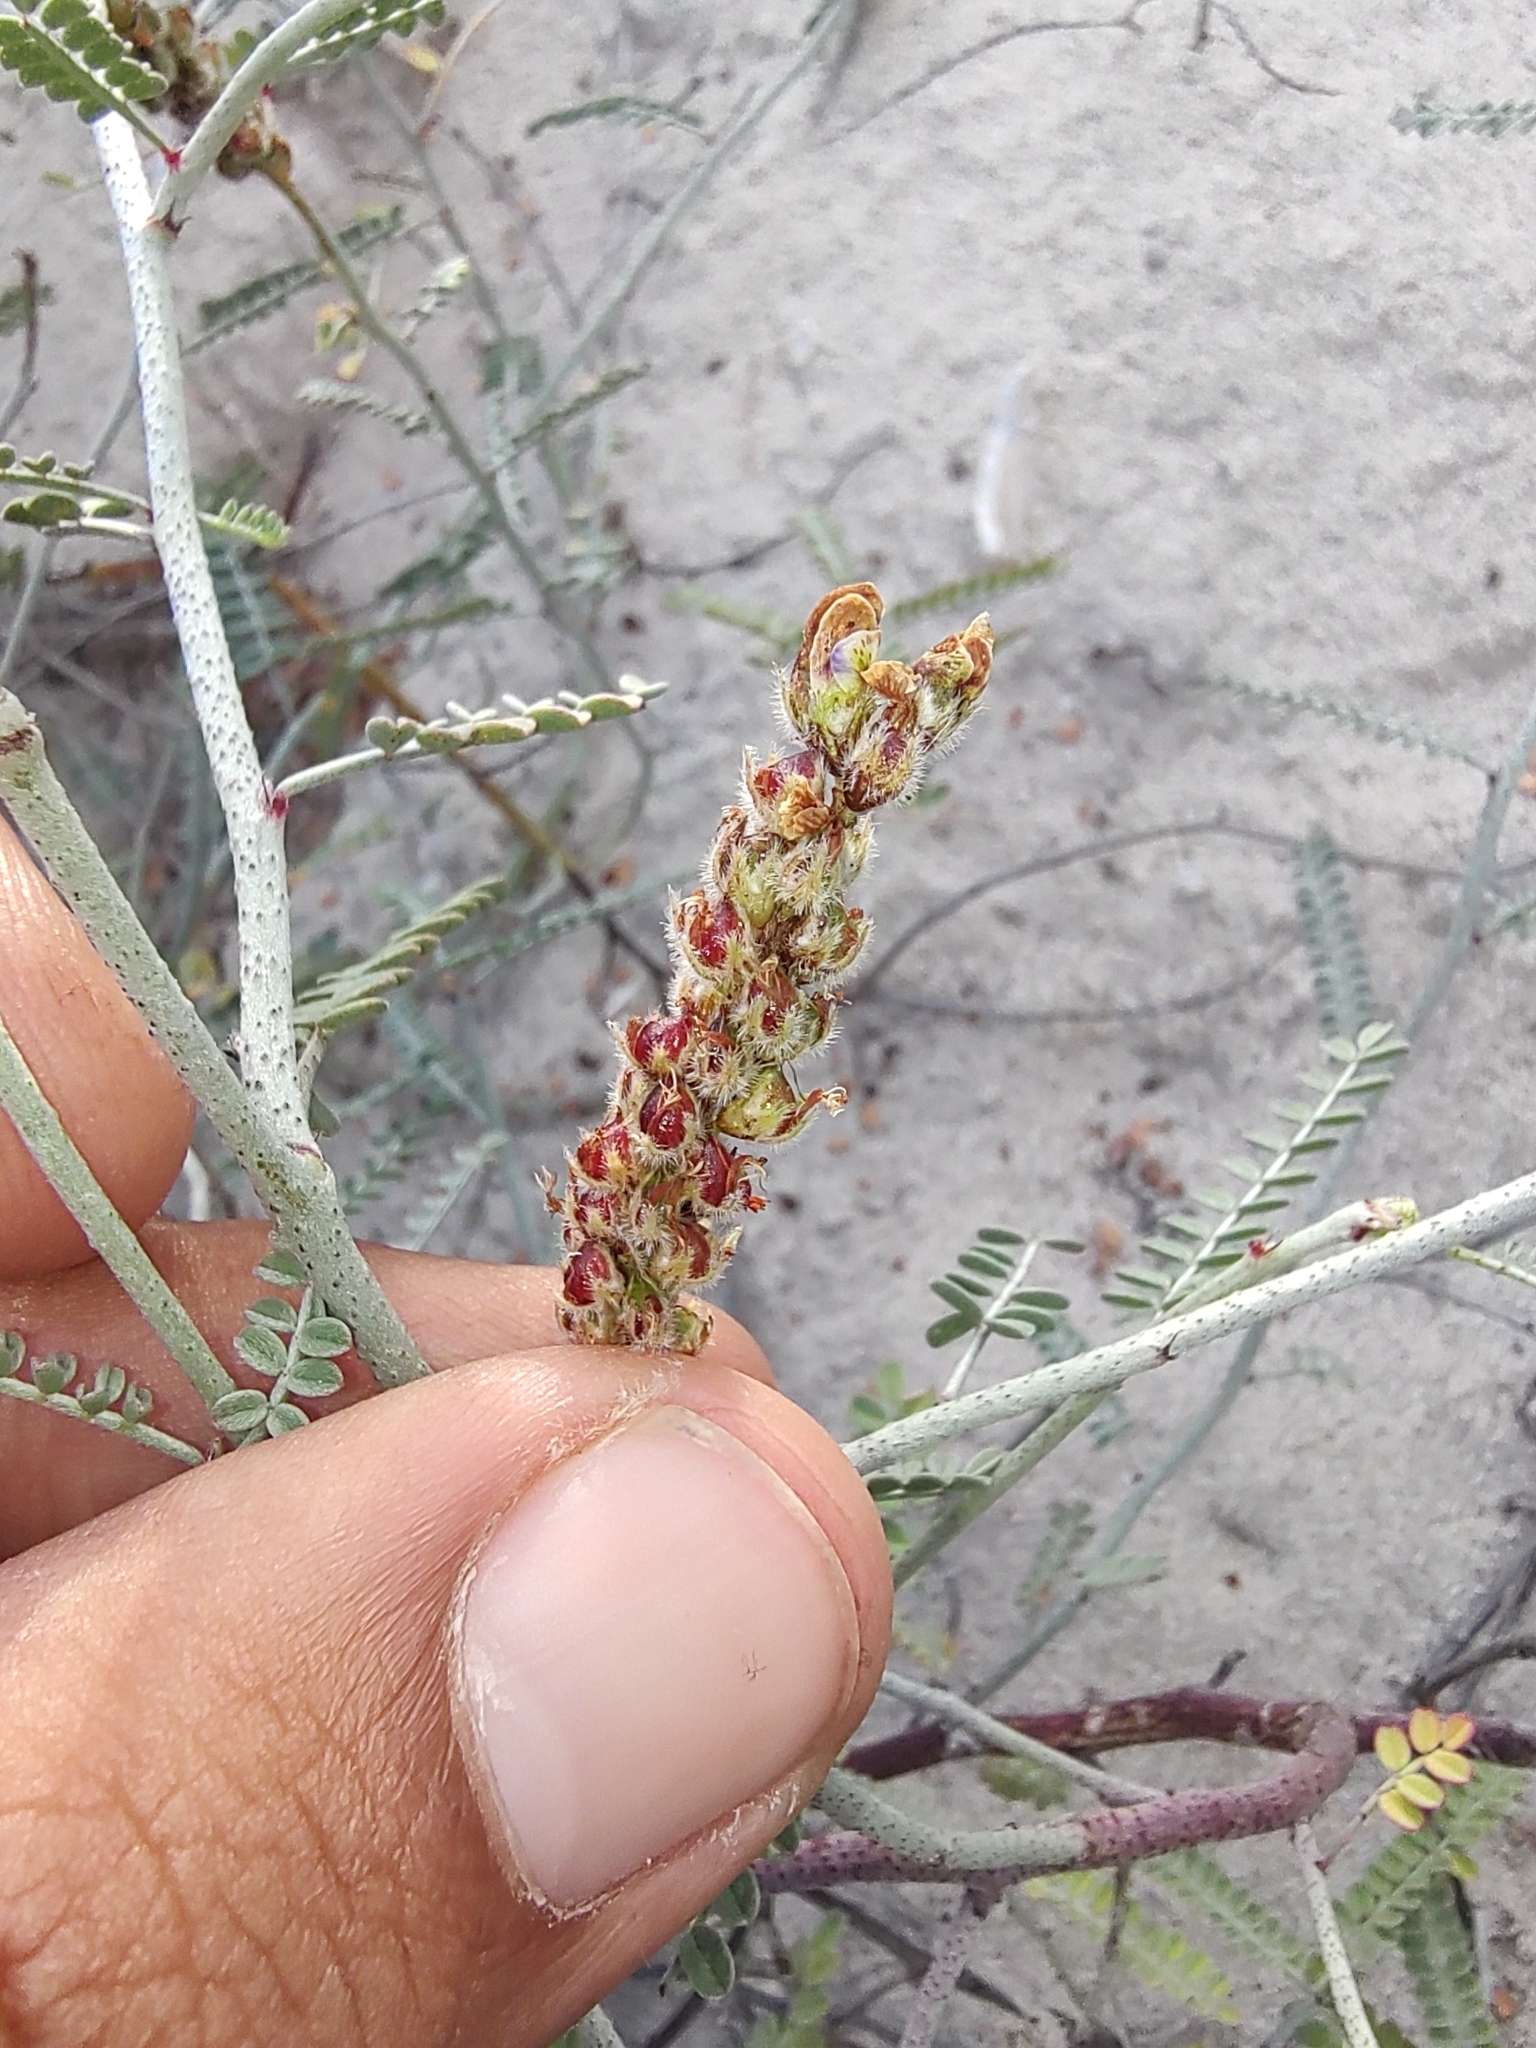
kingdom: Plantae
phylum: Tracheophyta
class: Magnoliopsida
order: Fabales
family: Fabaceae
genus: Marina
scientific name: Marina maritima
